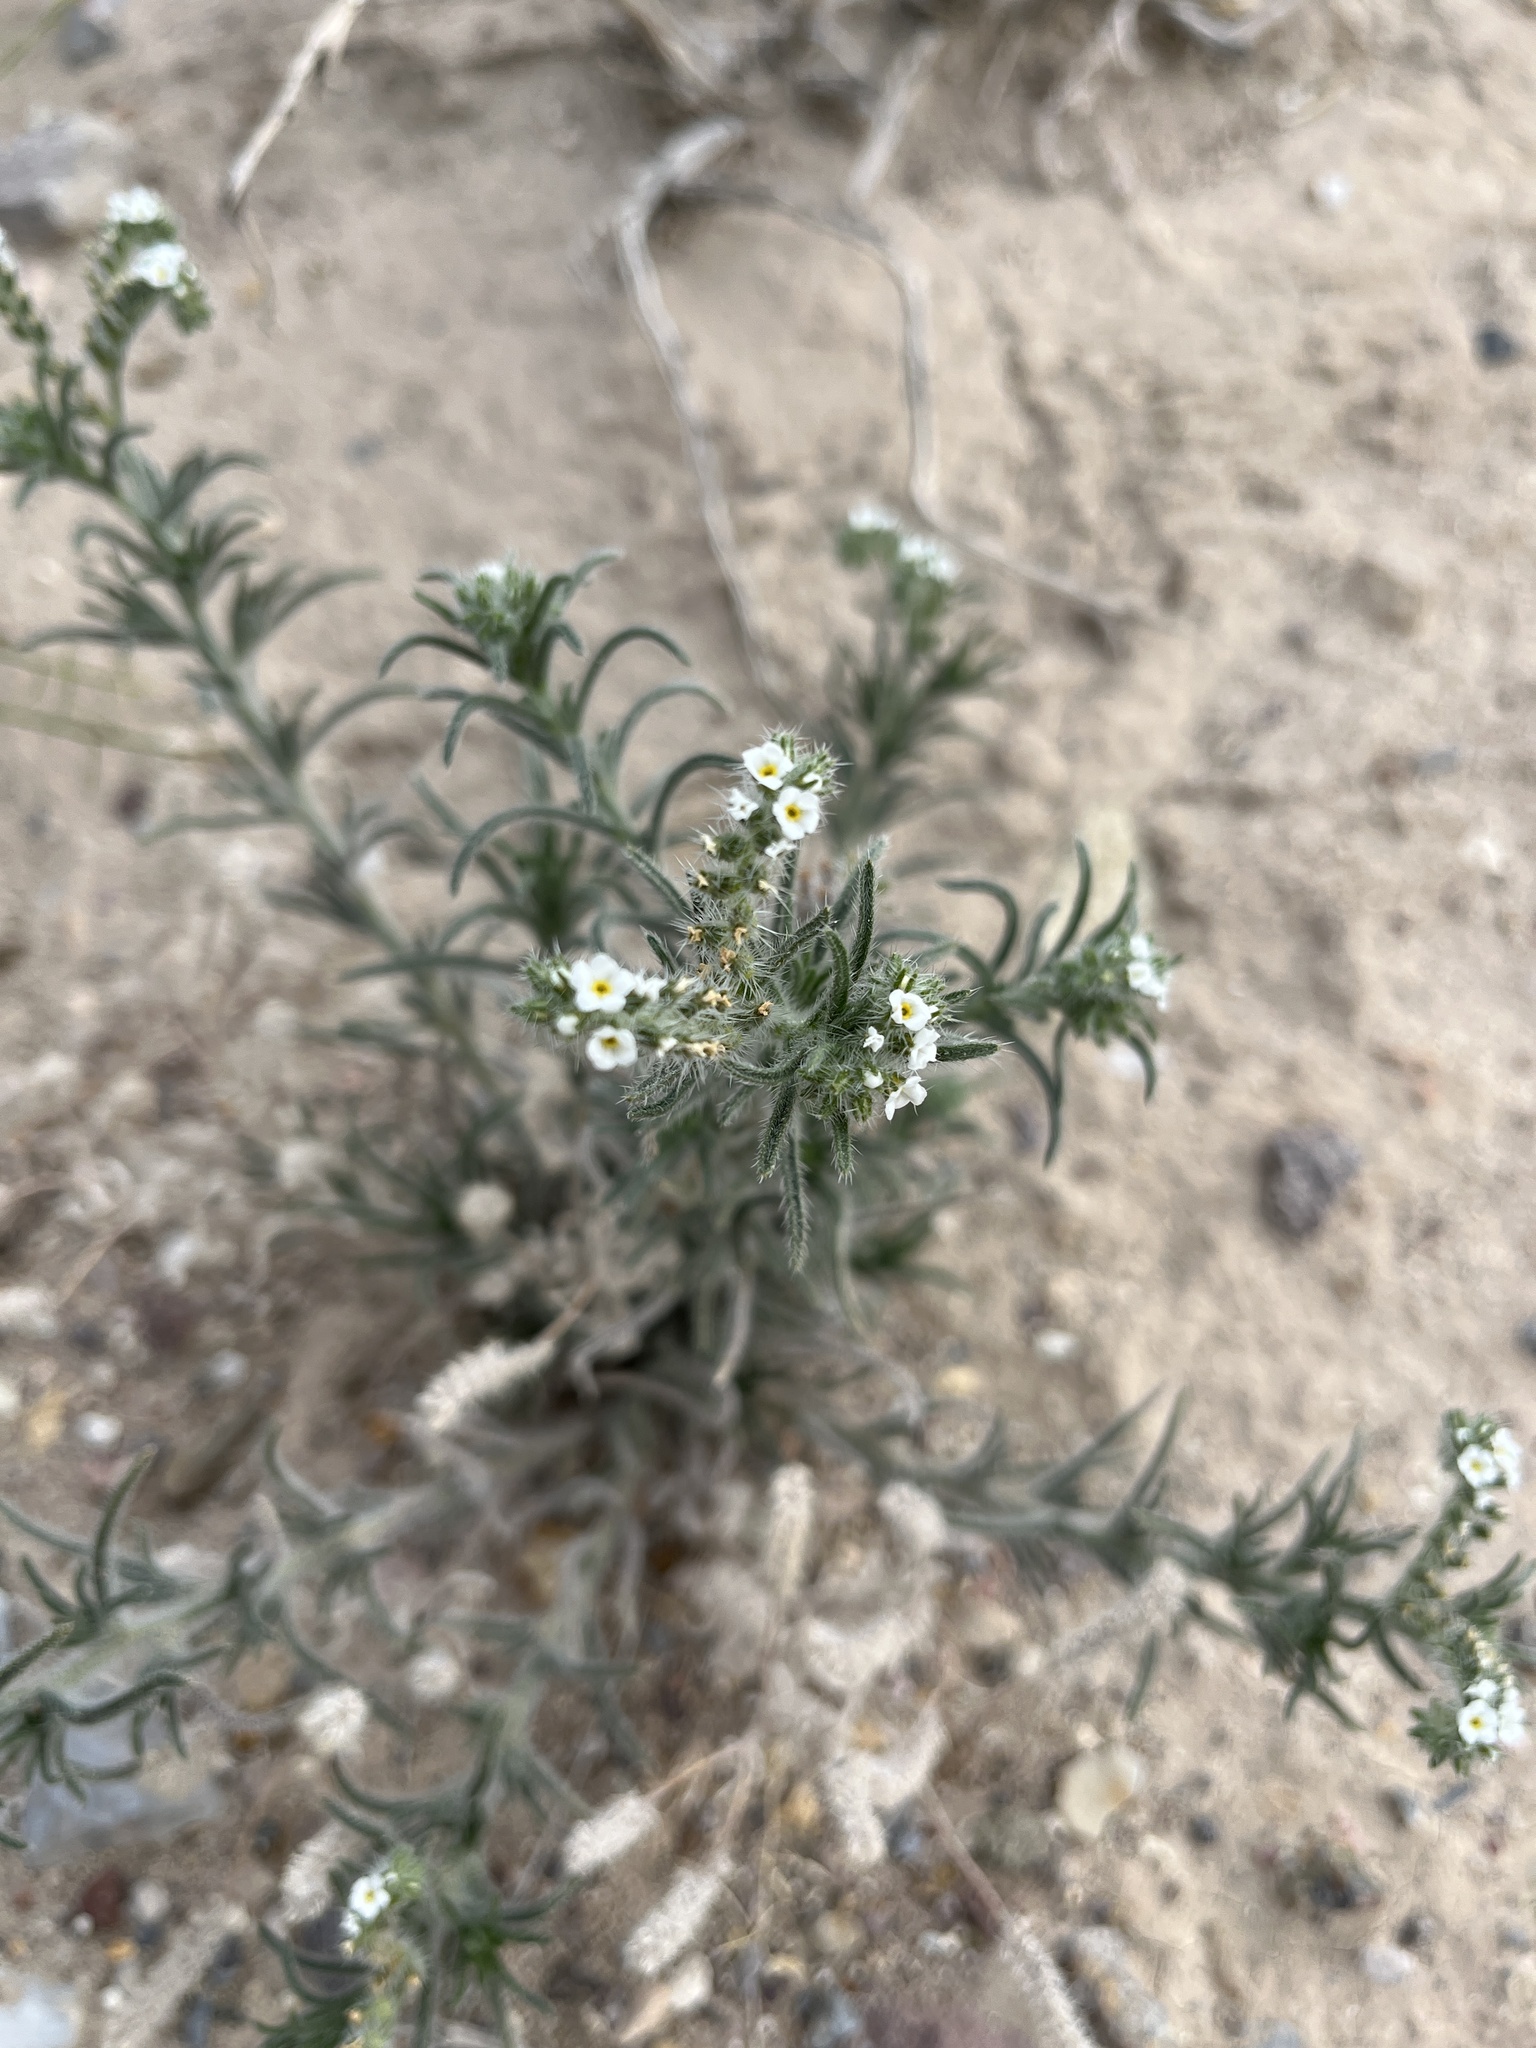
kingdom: Plantae
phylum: Tracheophyta
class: Magnoliopsida
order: Boraginales
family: Boraginaceae
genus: Johnstonella
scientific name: Johnstonella angustifolia
